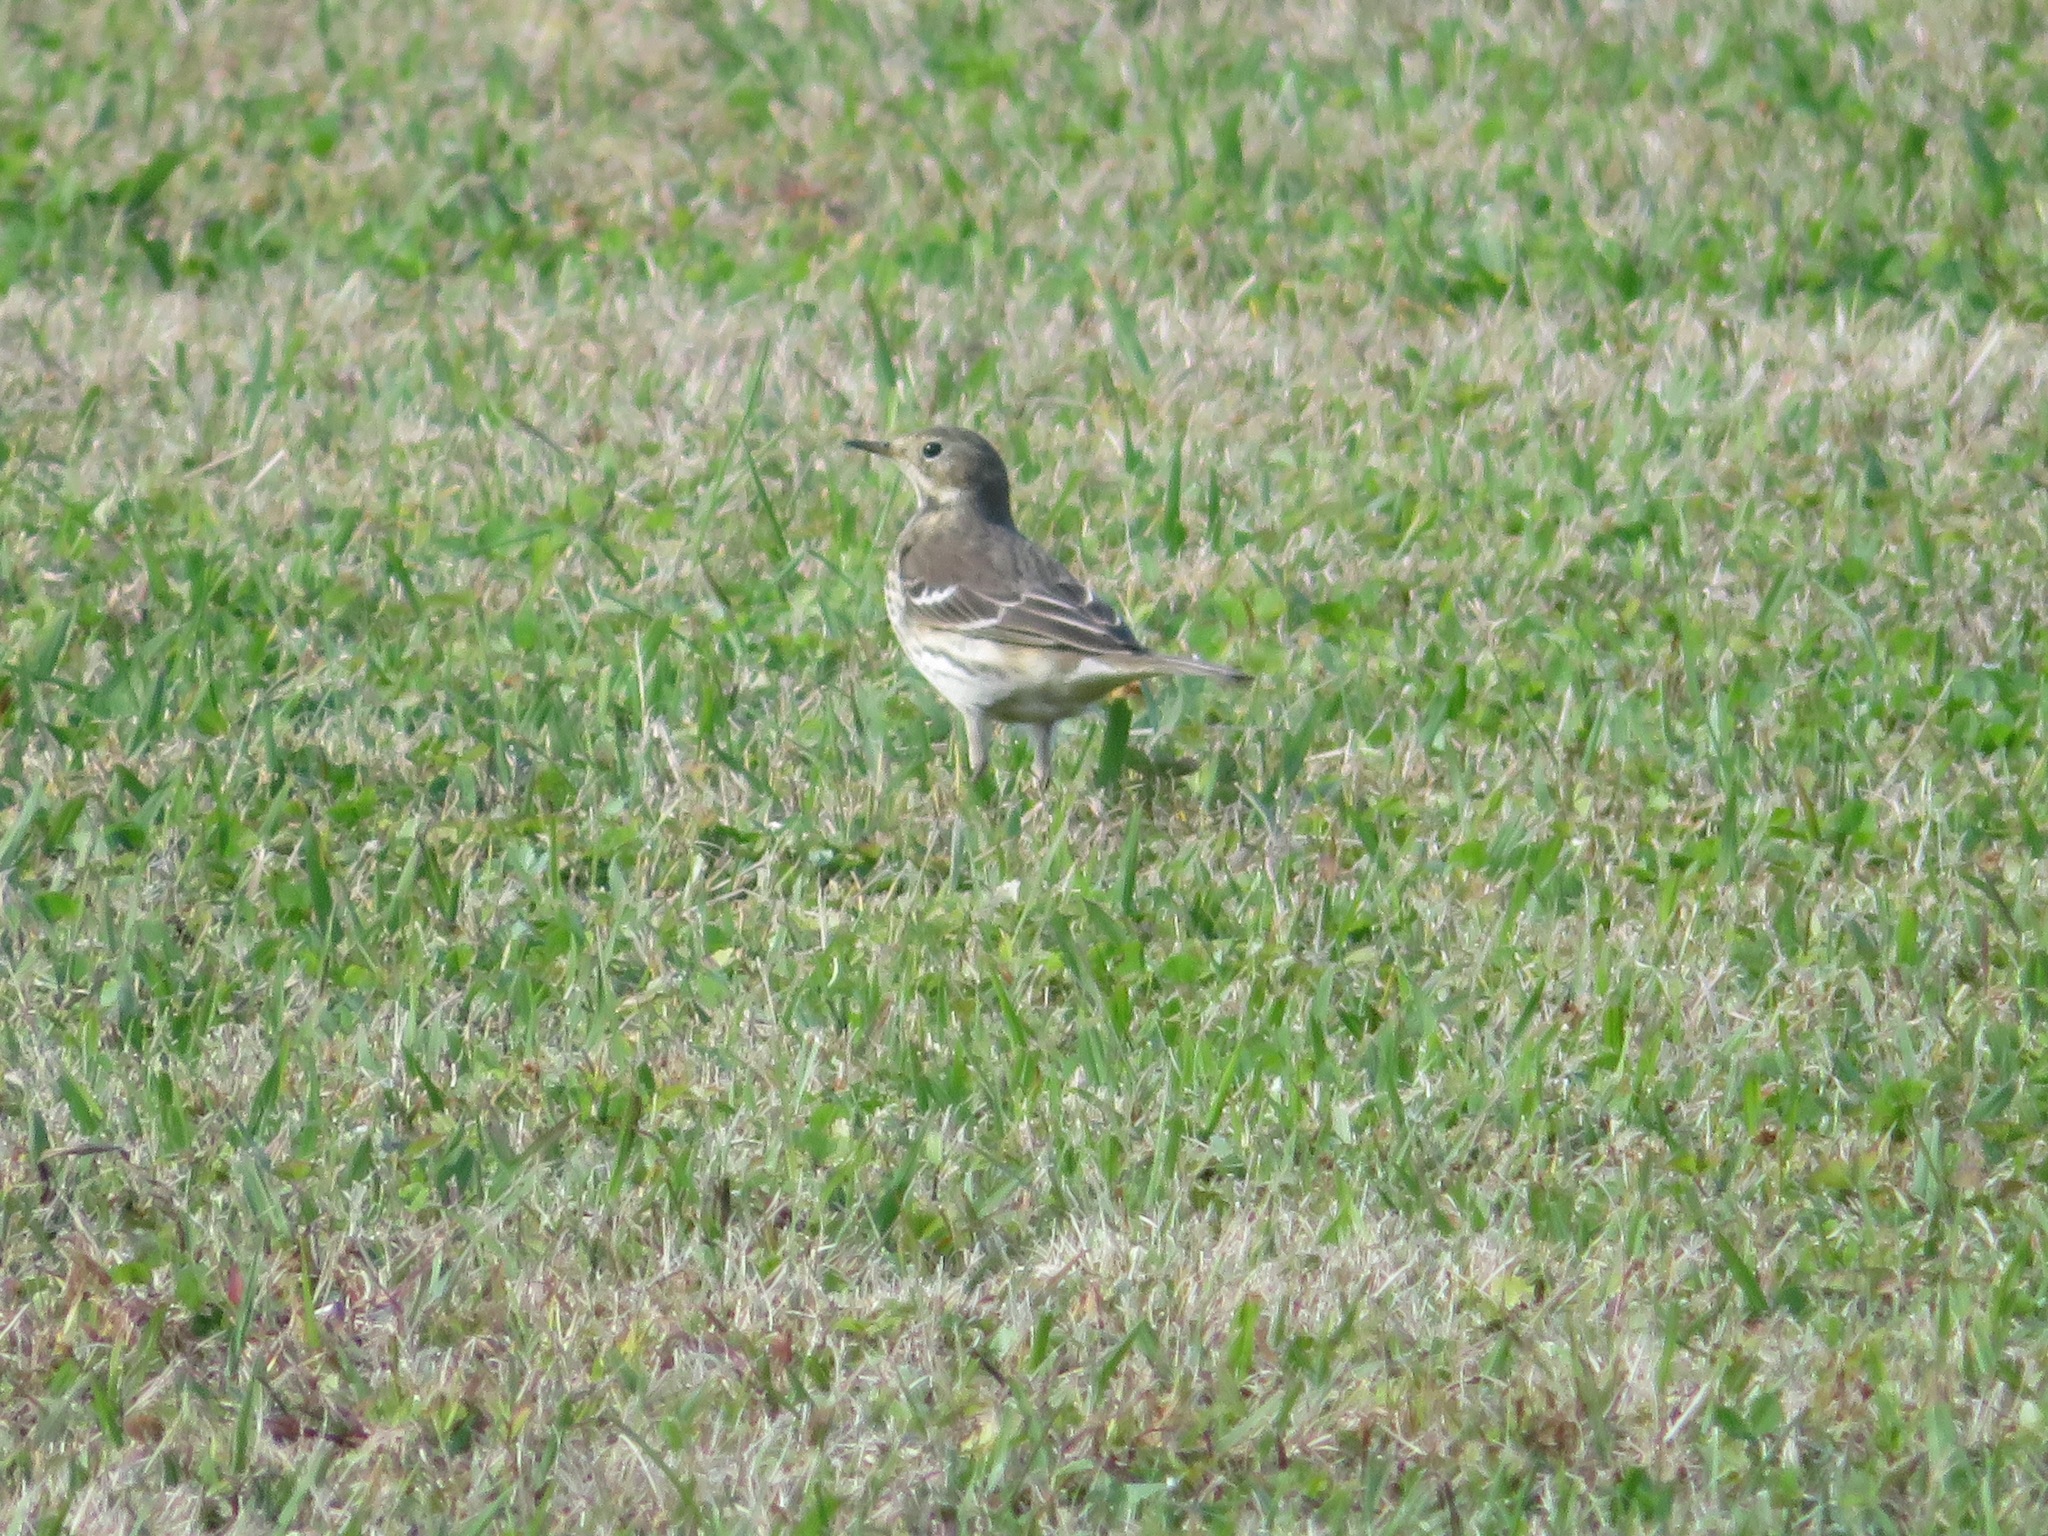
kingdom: Animalia
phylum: Chordata
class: Aves
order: Passeriformes
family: Motacillidae
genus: Anthus
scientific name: Anthus rubescens
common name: Buff-bellied pipit
